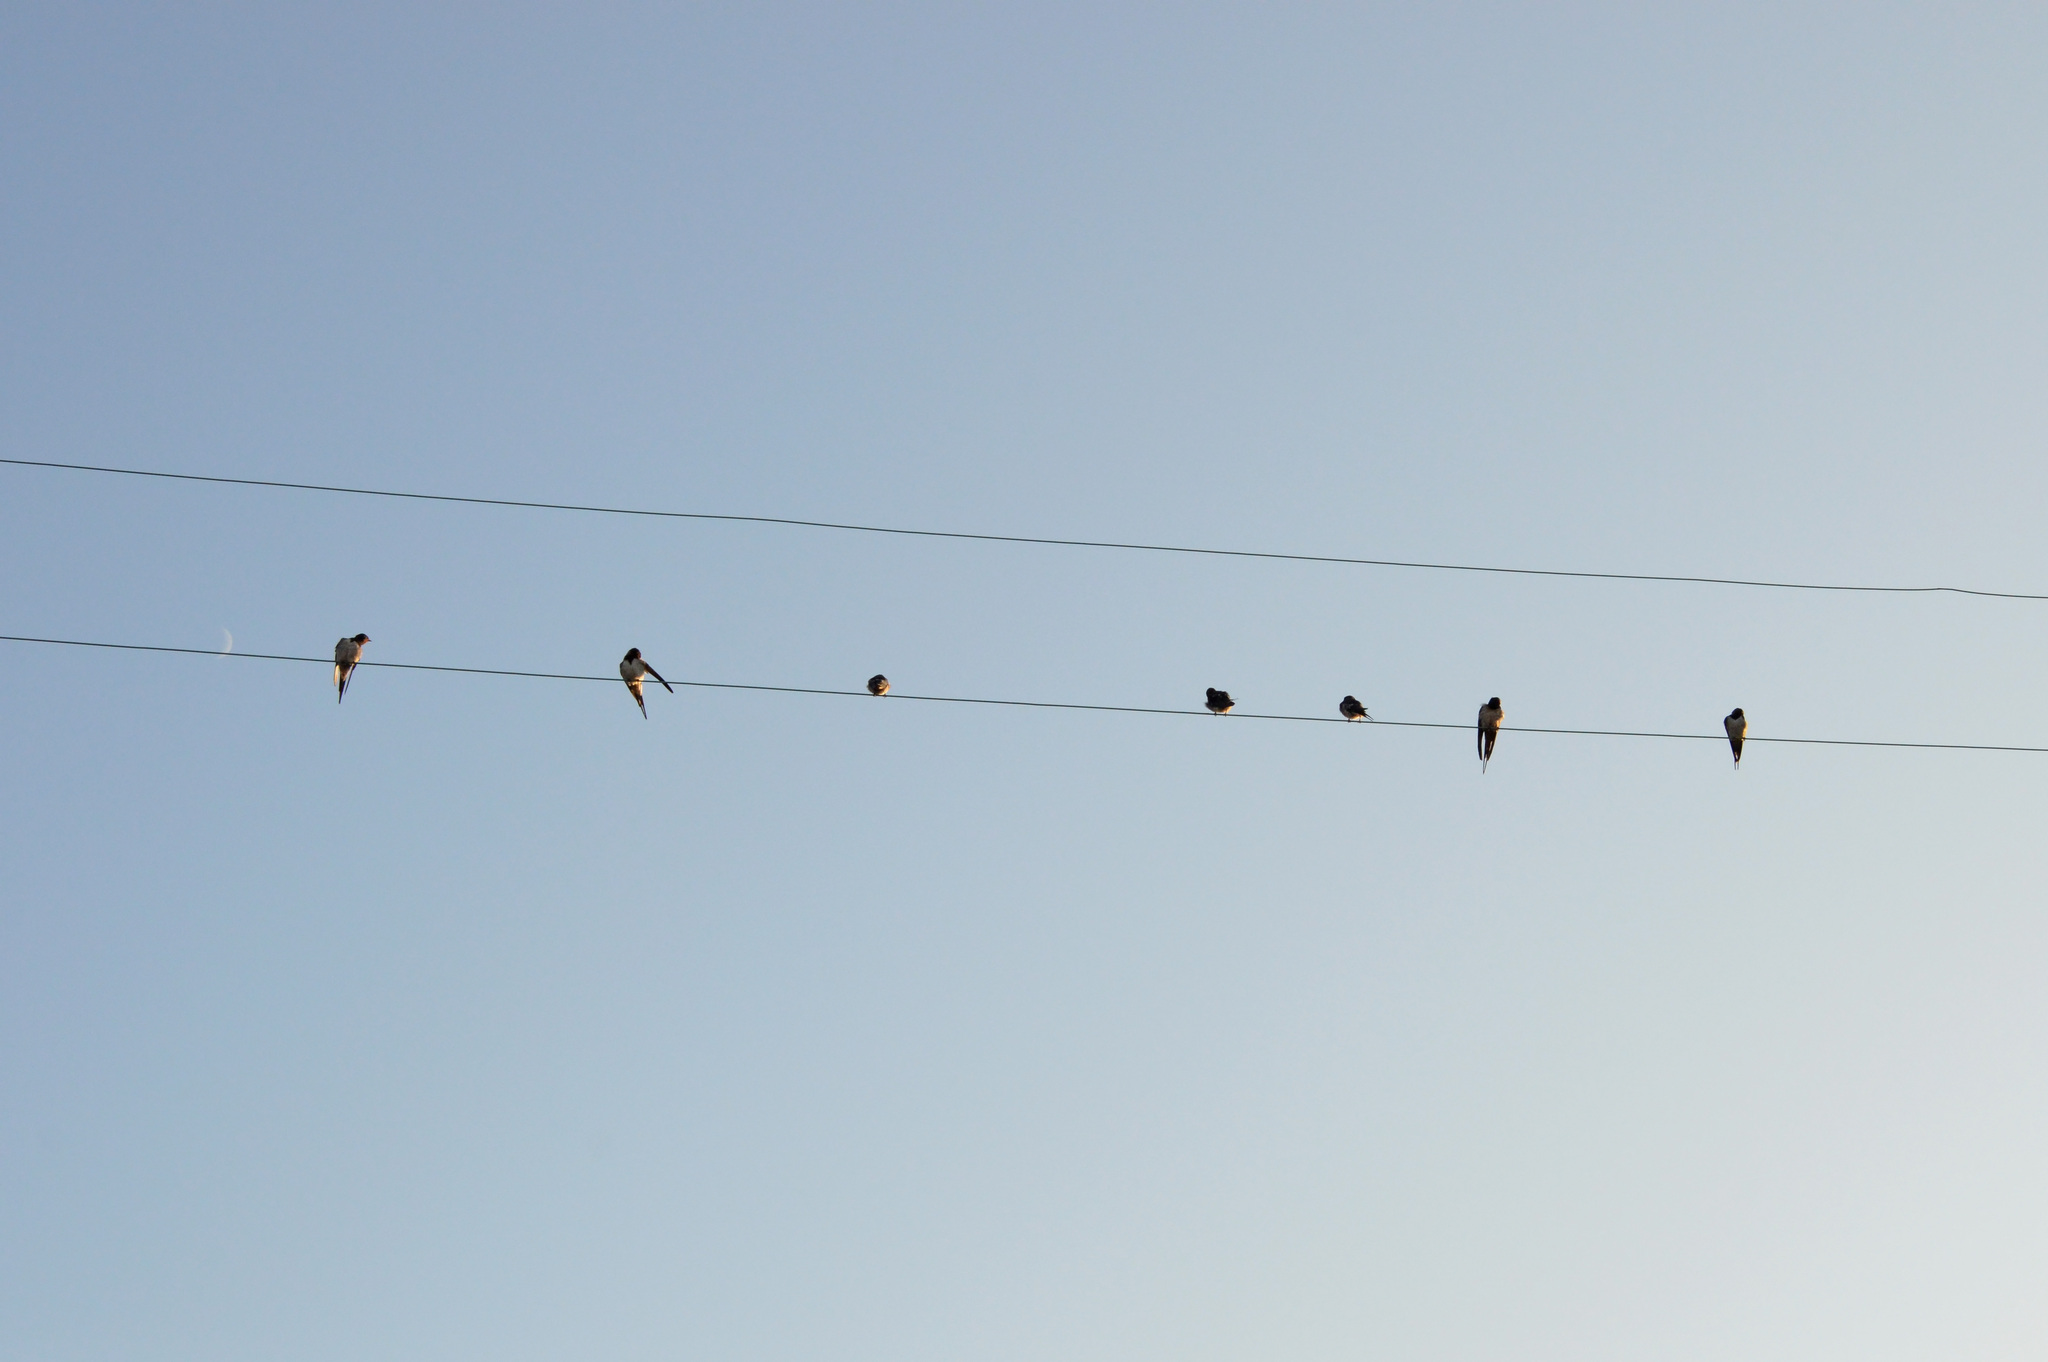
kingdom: Animalia
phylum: Chordata
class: Aves
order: Passeriformes
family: Hirundinidae
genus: Hirundo
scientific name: Hirundo rustica
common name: Barn swallow
